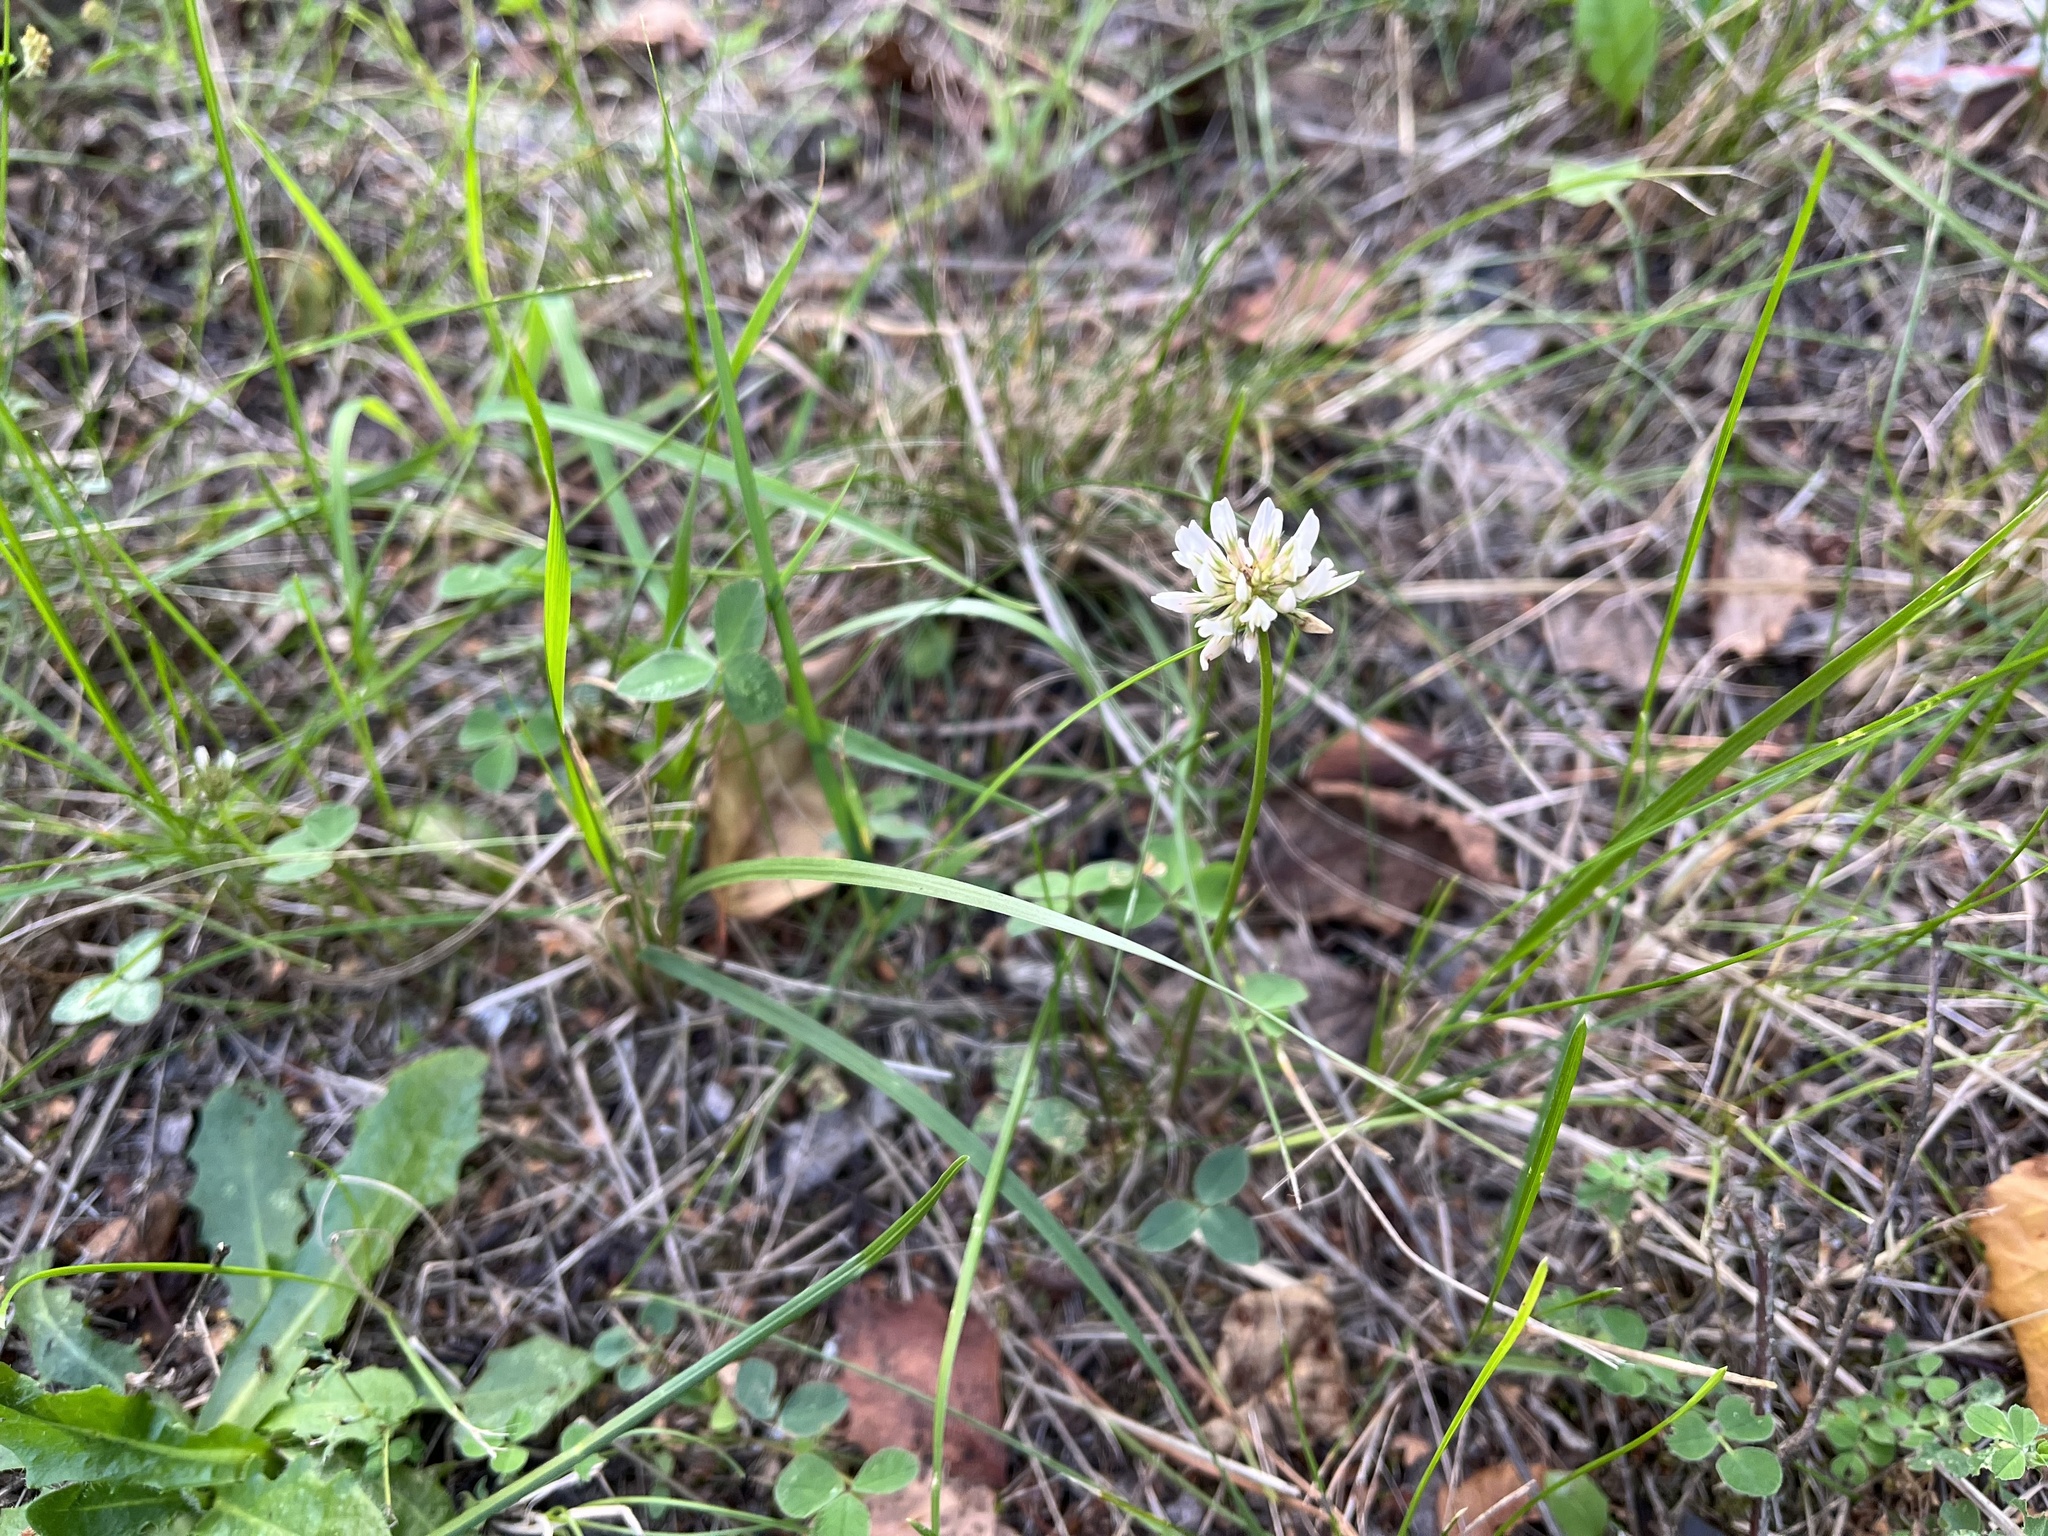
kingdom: Plantae
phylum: Tracheophyta
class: Magnoliopsida
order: Fabales
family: Fabaceae
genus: Trifolium
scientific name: Trifolium repens
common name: White clover
